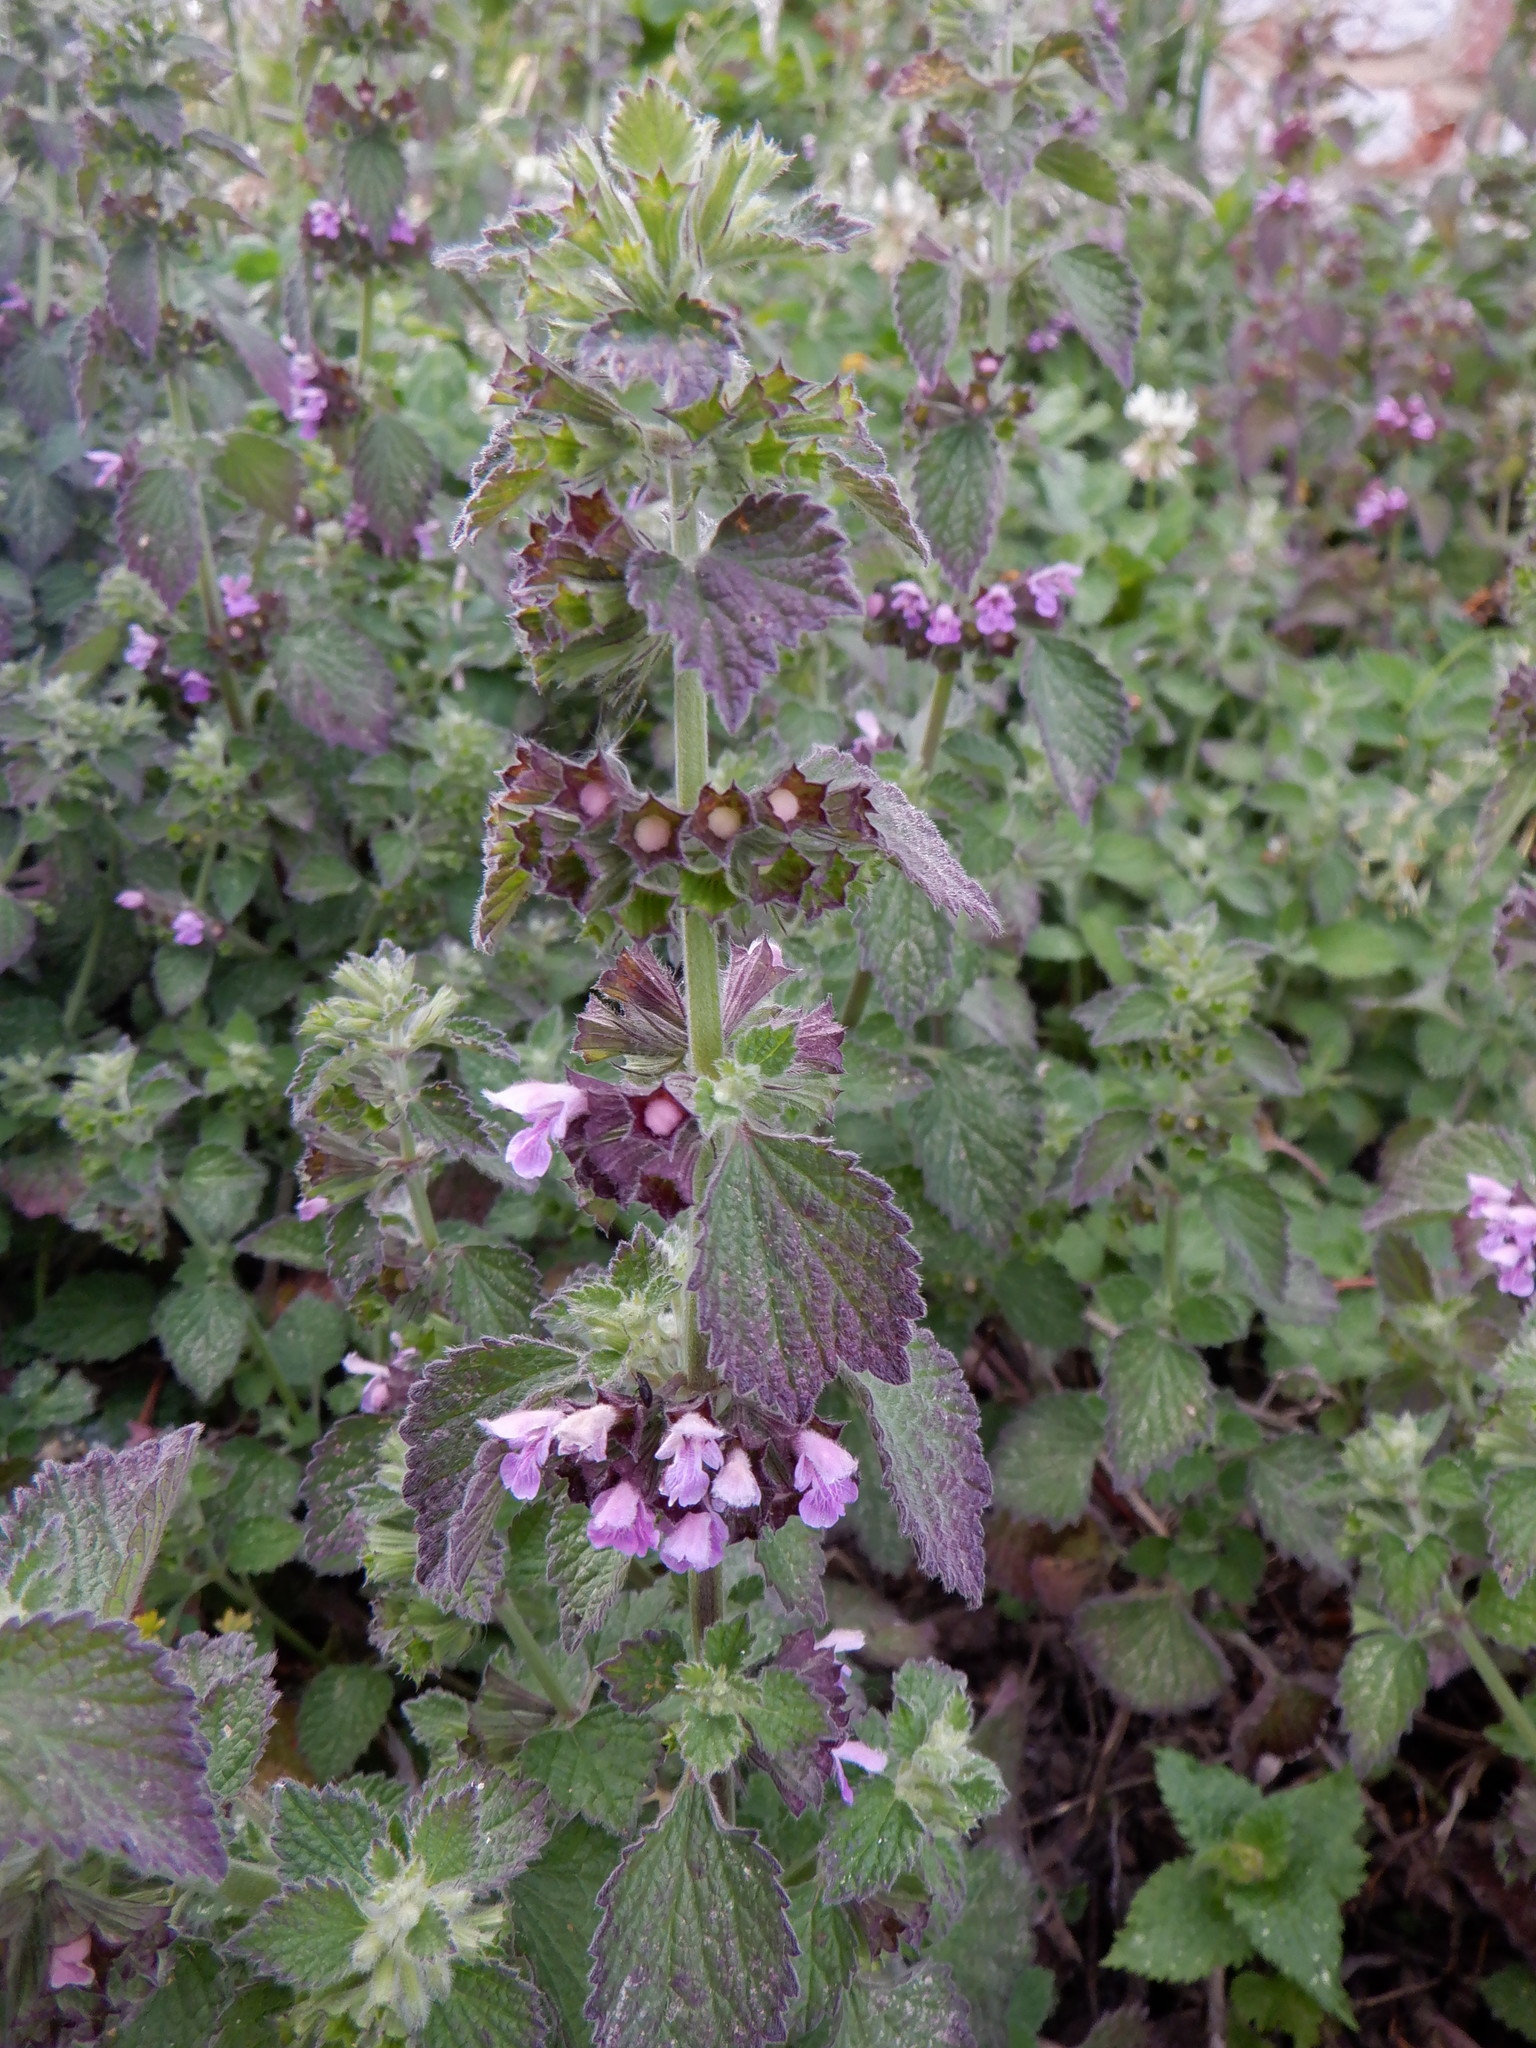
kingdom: Plantae
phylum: Tracheophyta
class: Magnoliopsida
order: Lamiales
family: Lamiaceae
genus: Ballota
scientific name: Ballota nigra
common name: Black horehound
